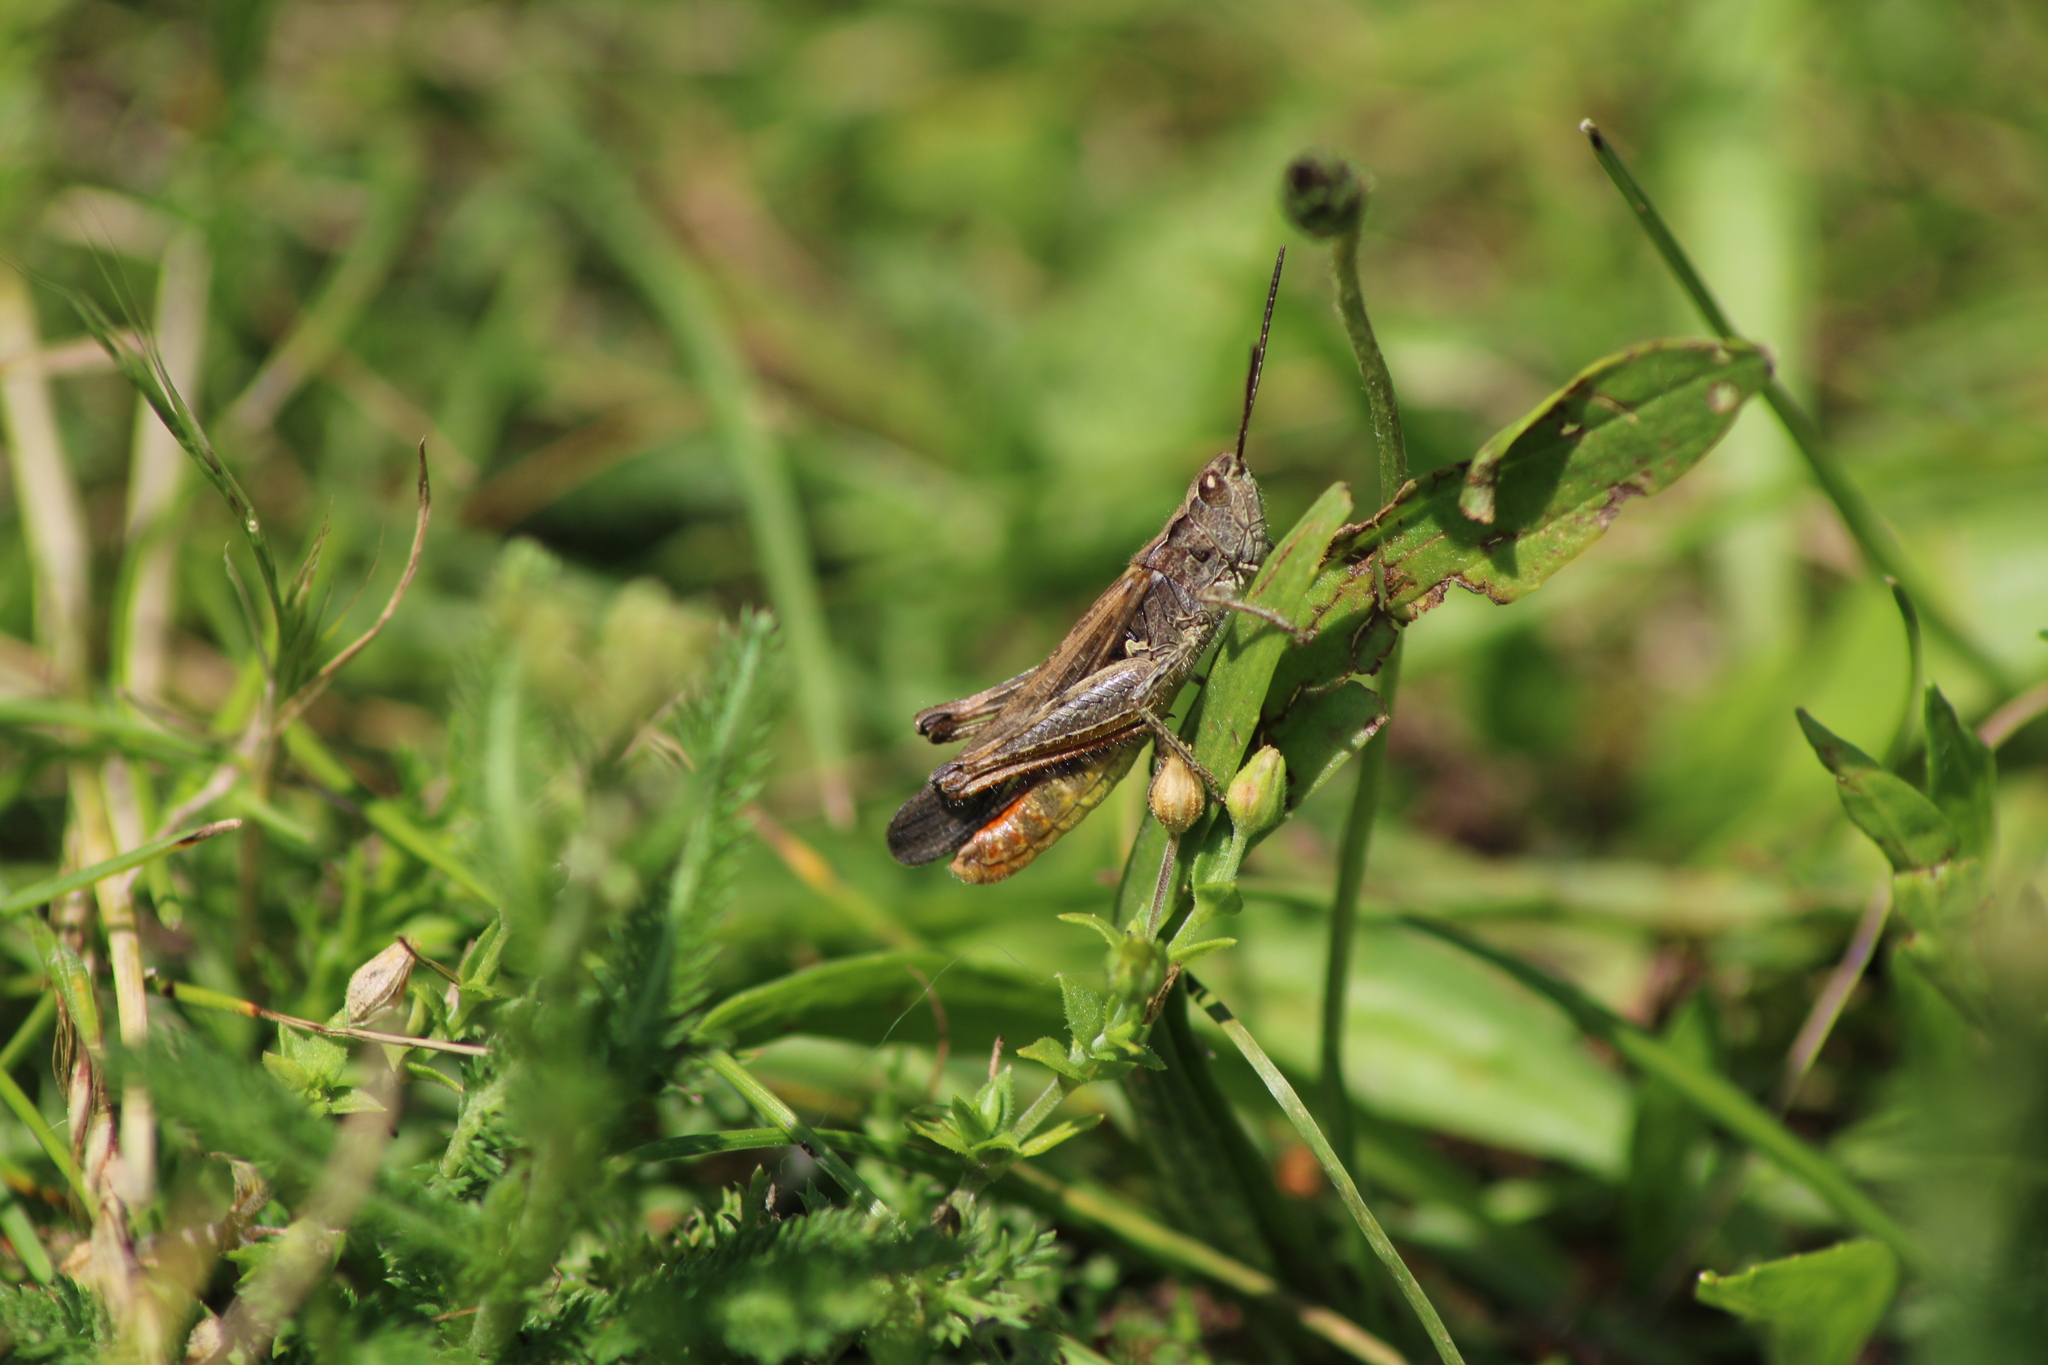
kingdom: Animalia
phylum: Arthropoda
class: Insecta
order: Orthoptera
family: Acrididae
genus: Chorthippus
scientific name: Chorthippus brunneus
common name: Field grasshopper
